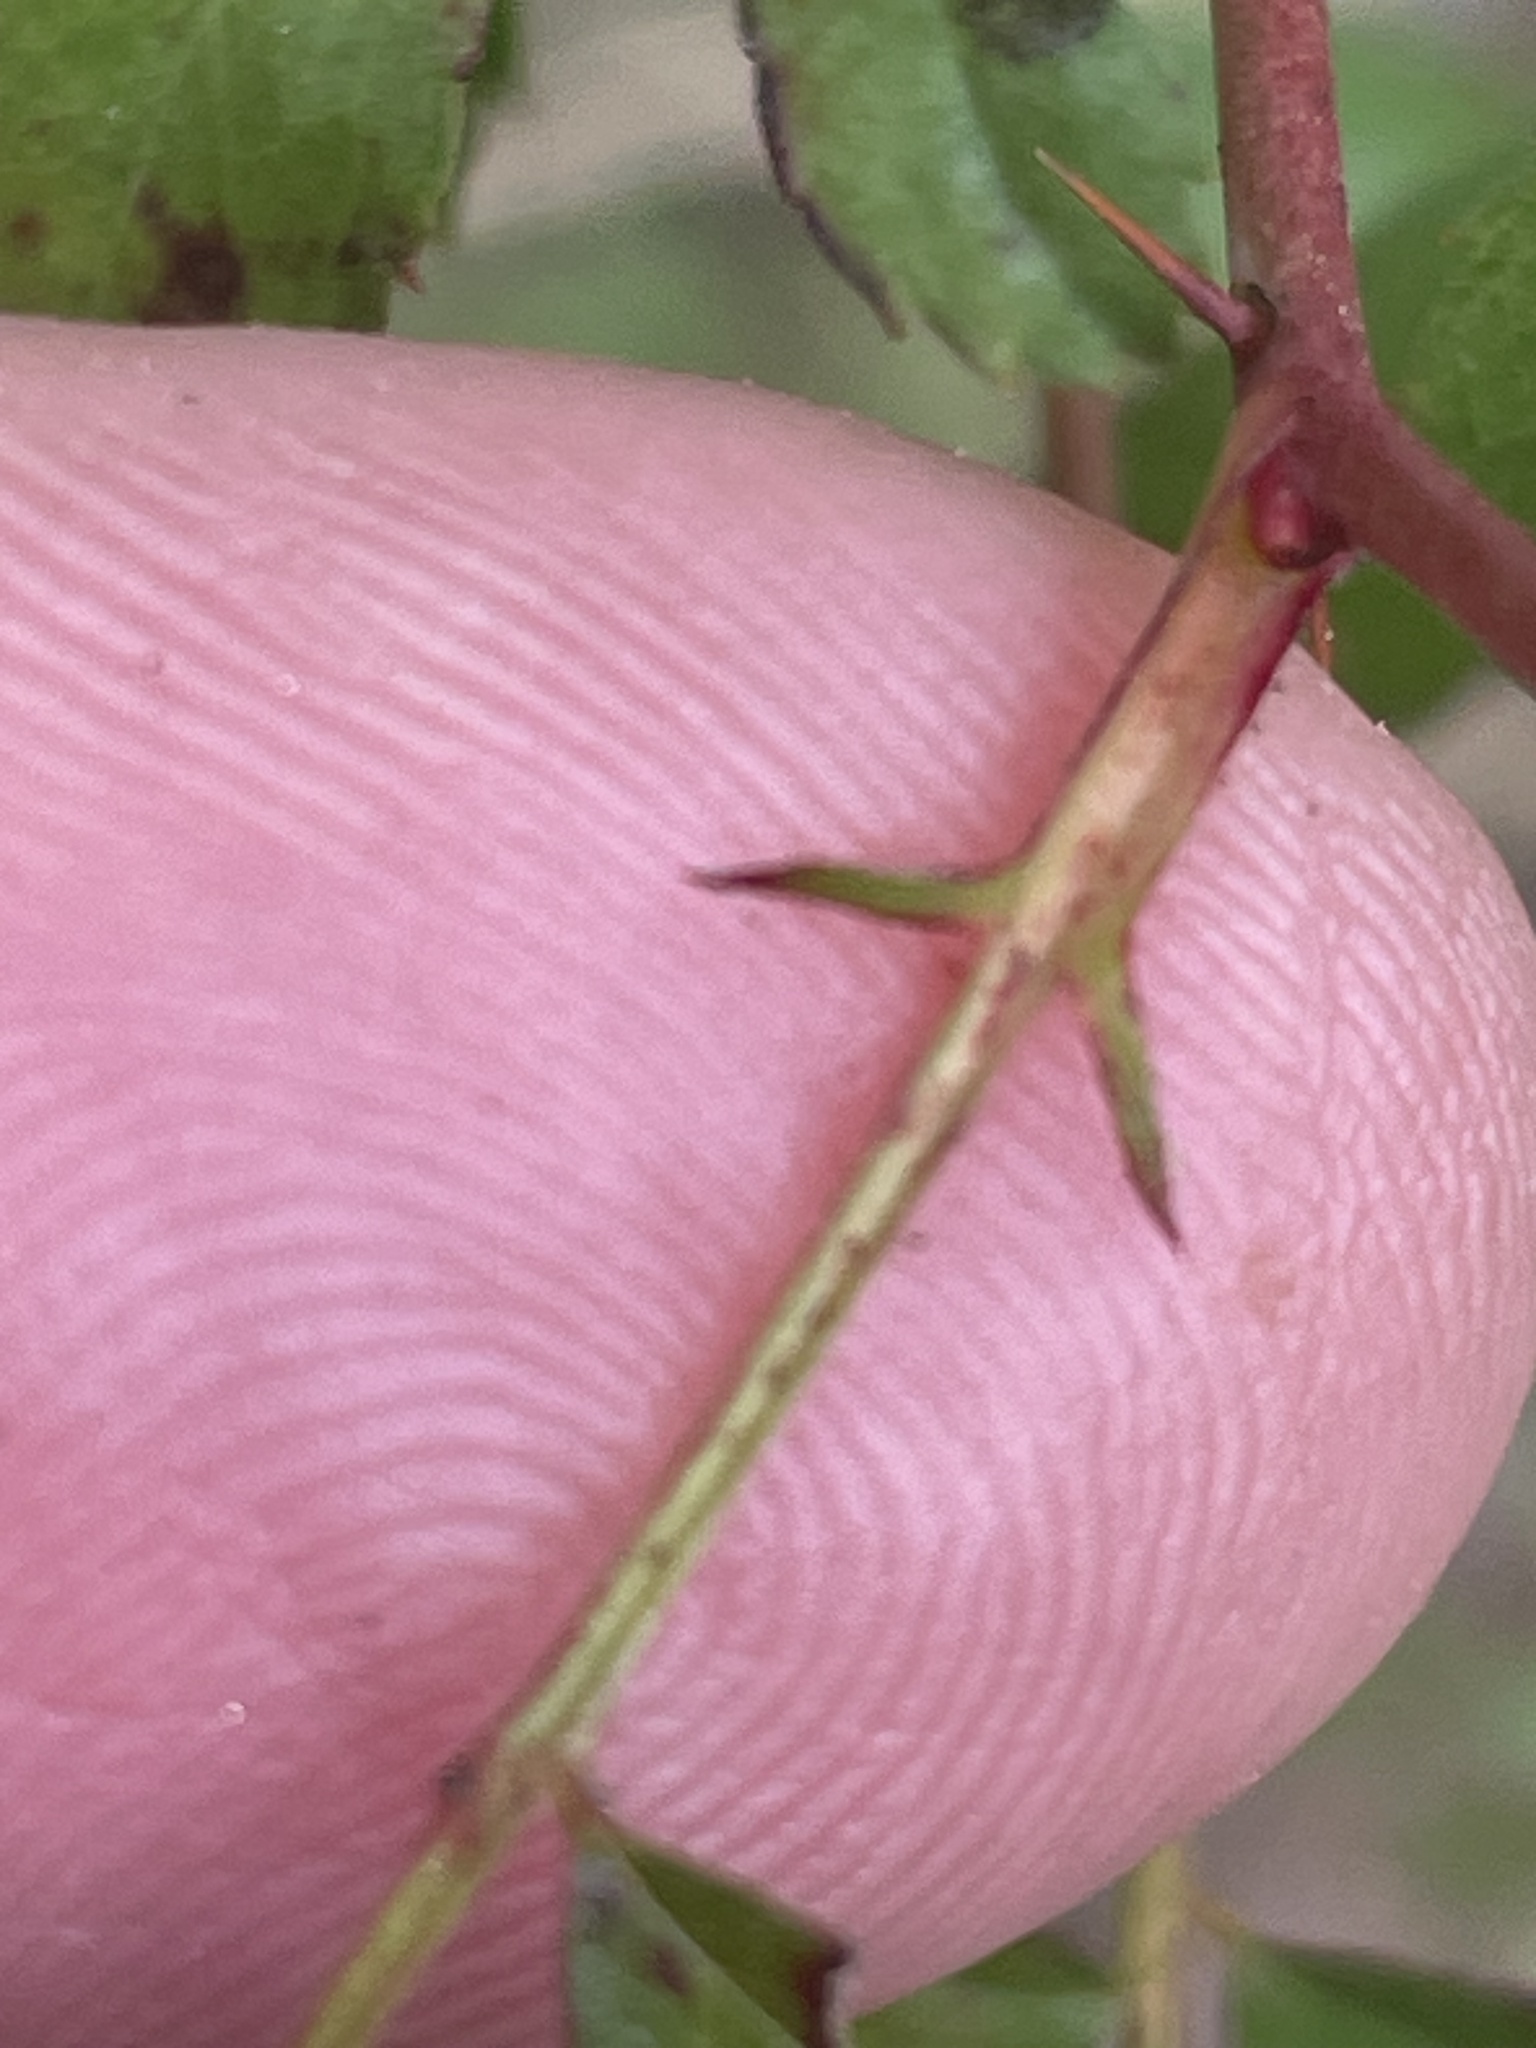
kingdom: Plantae
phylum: Tracheophyta
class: Magnoliopsida
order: Rosales
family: Rosaceae
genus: Rosa
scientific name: Rosa carolina
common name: Pasture rose
